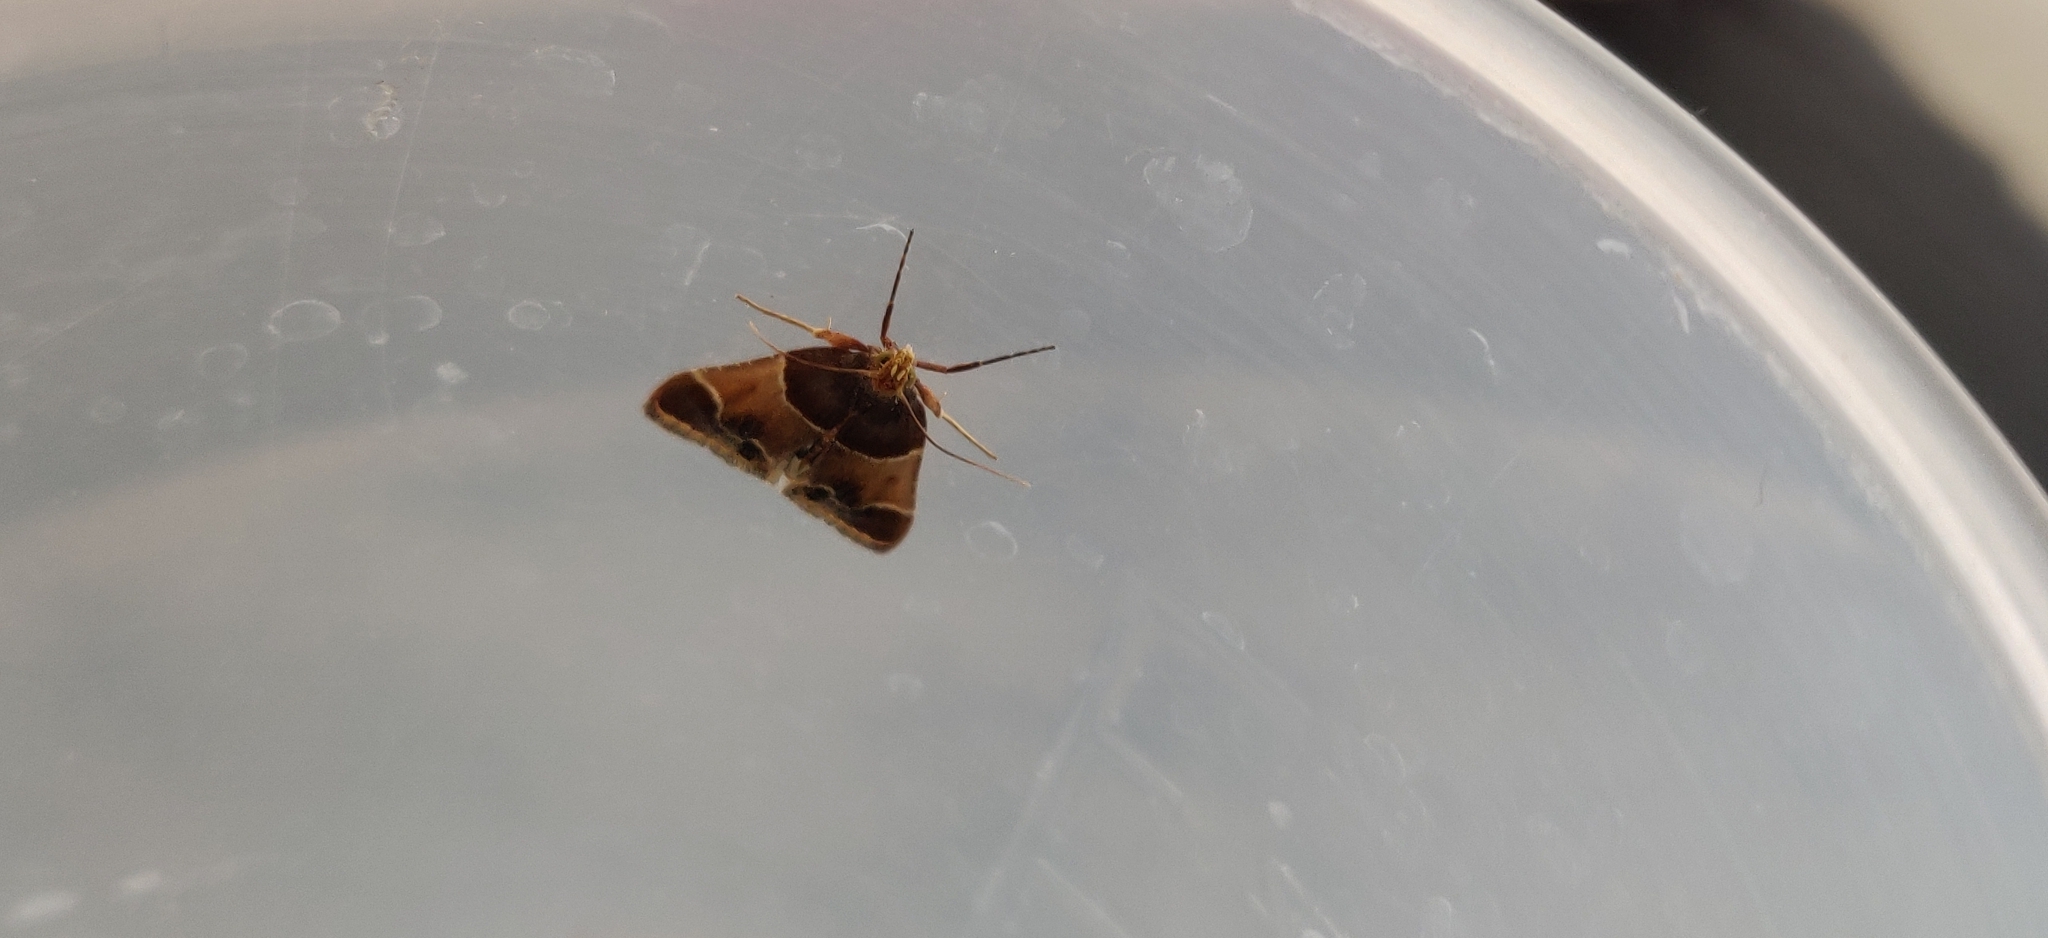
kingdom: Animalia
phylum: Arthropoda
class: Insecta
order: Lepidoptera
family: Pyralidae
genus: Pyralis
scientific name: Pyralis farinalis
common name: Meal moth
